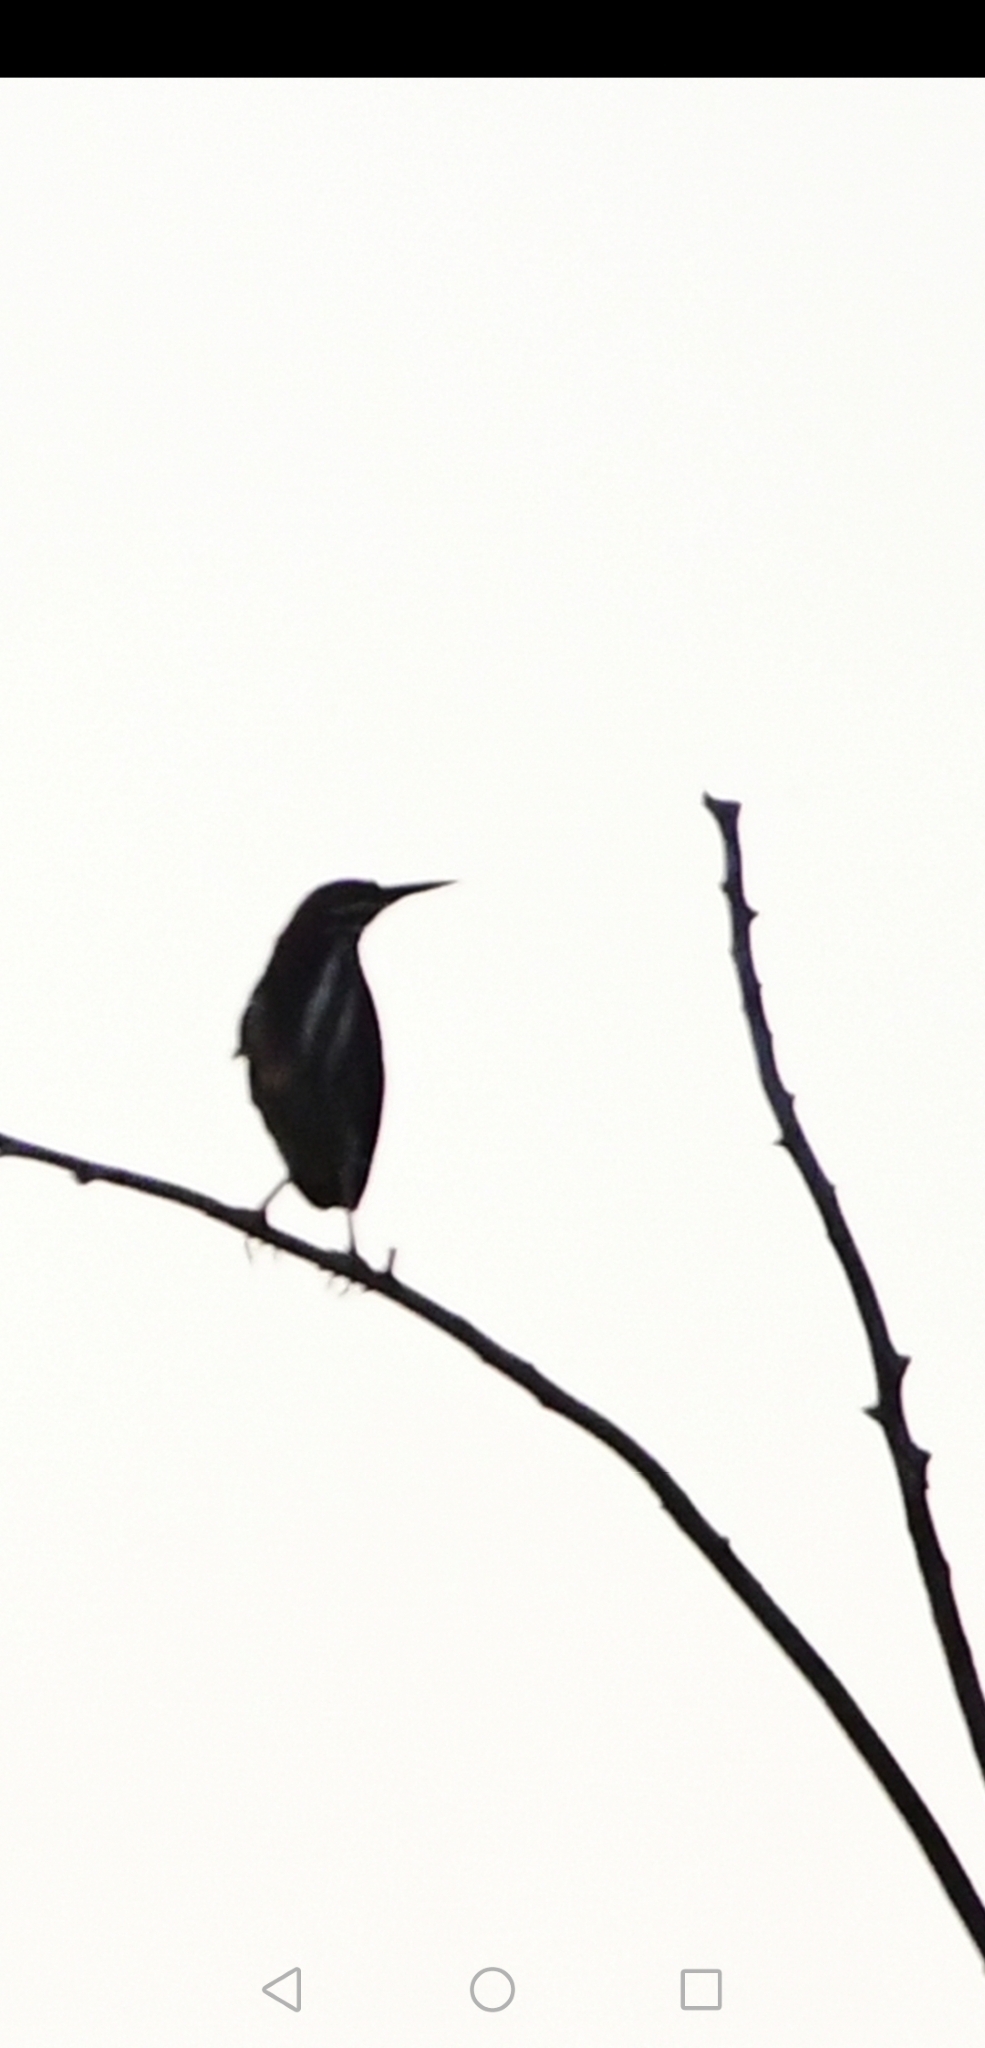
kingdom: Animalia
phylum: Chordata
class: Aves
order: Pelecaniformes
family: Ardeidae
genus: Butorides
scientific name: Butorides virescens
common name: Green heron
